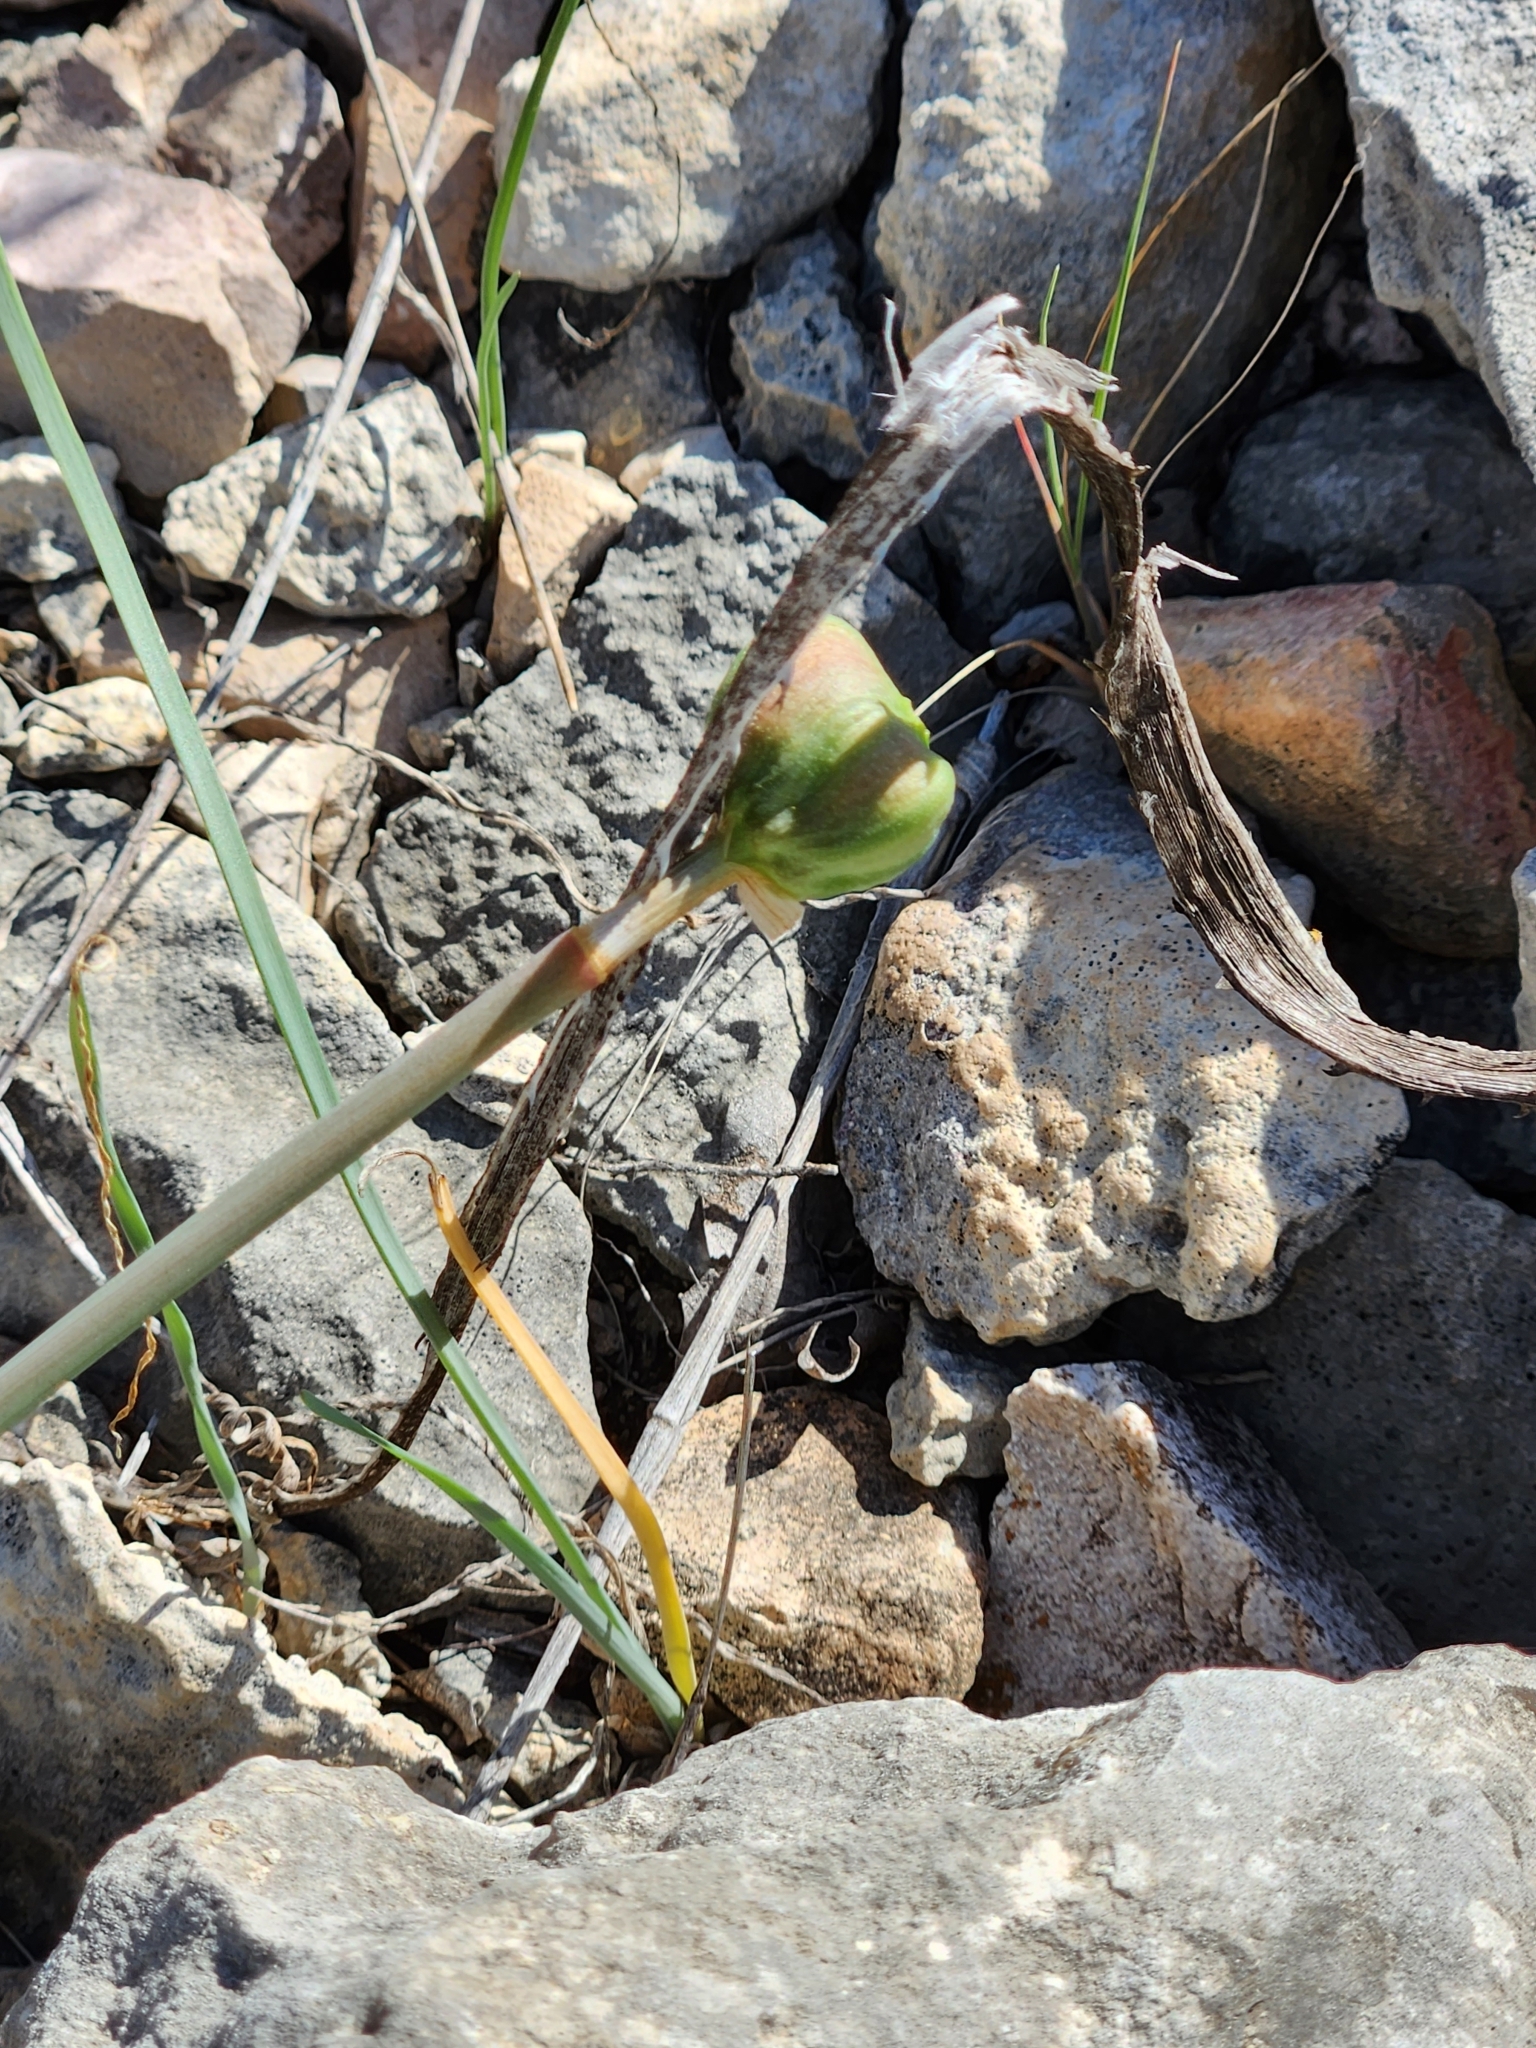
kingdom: Plantae
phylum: Tracheophyta
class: Liliopsida
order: Asparagales
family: Amaryllidaceae
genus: Zephyranthes
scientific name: Zephyranthes drummondii
